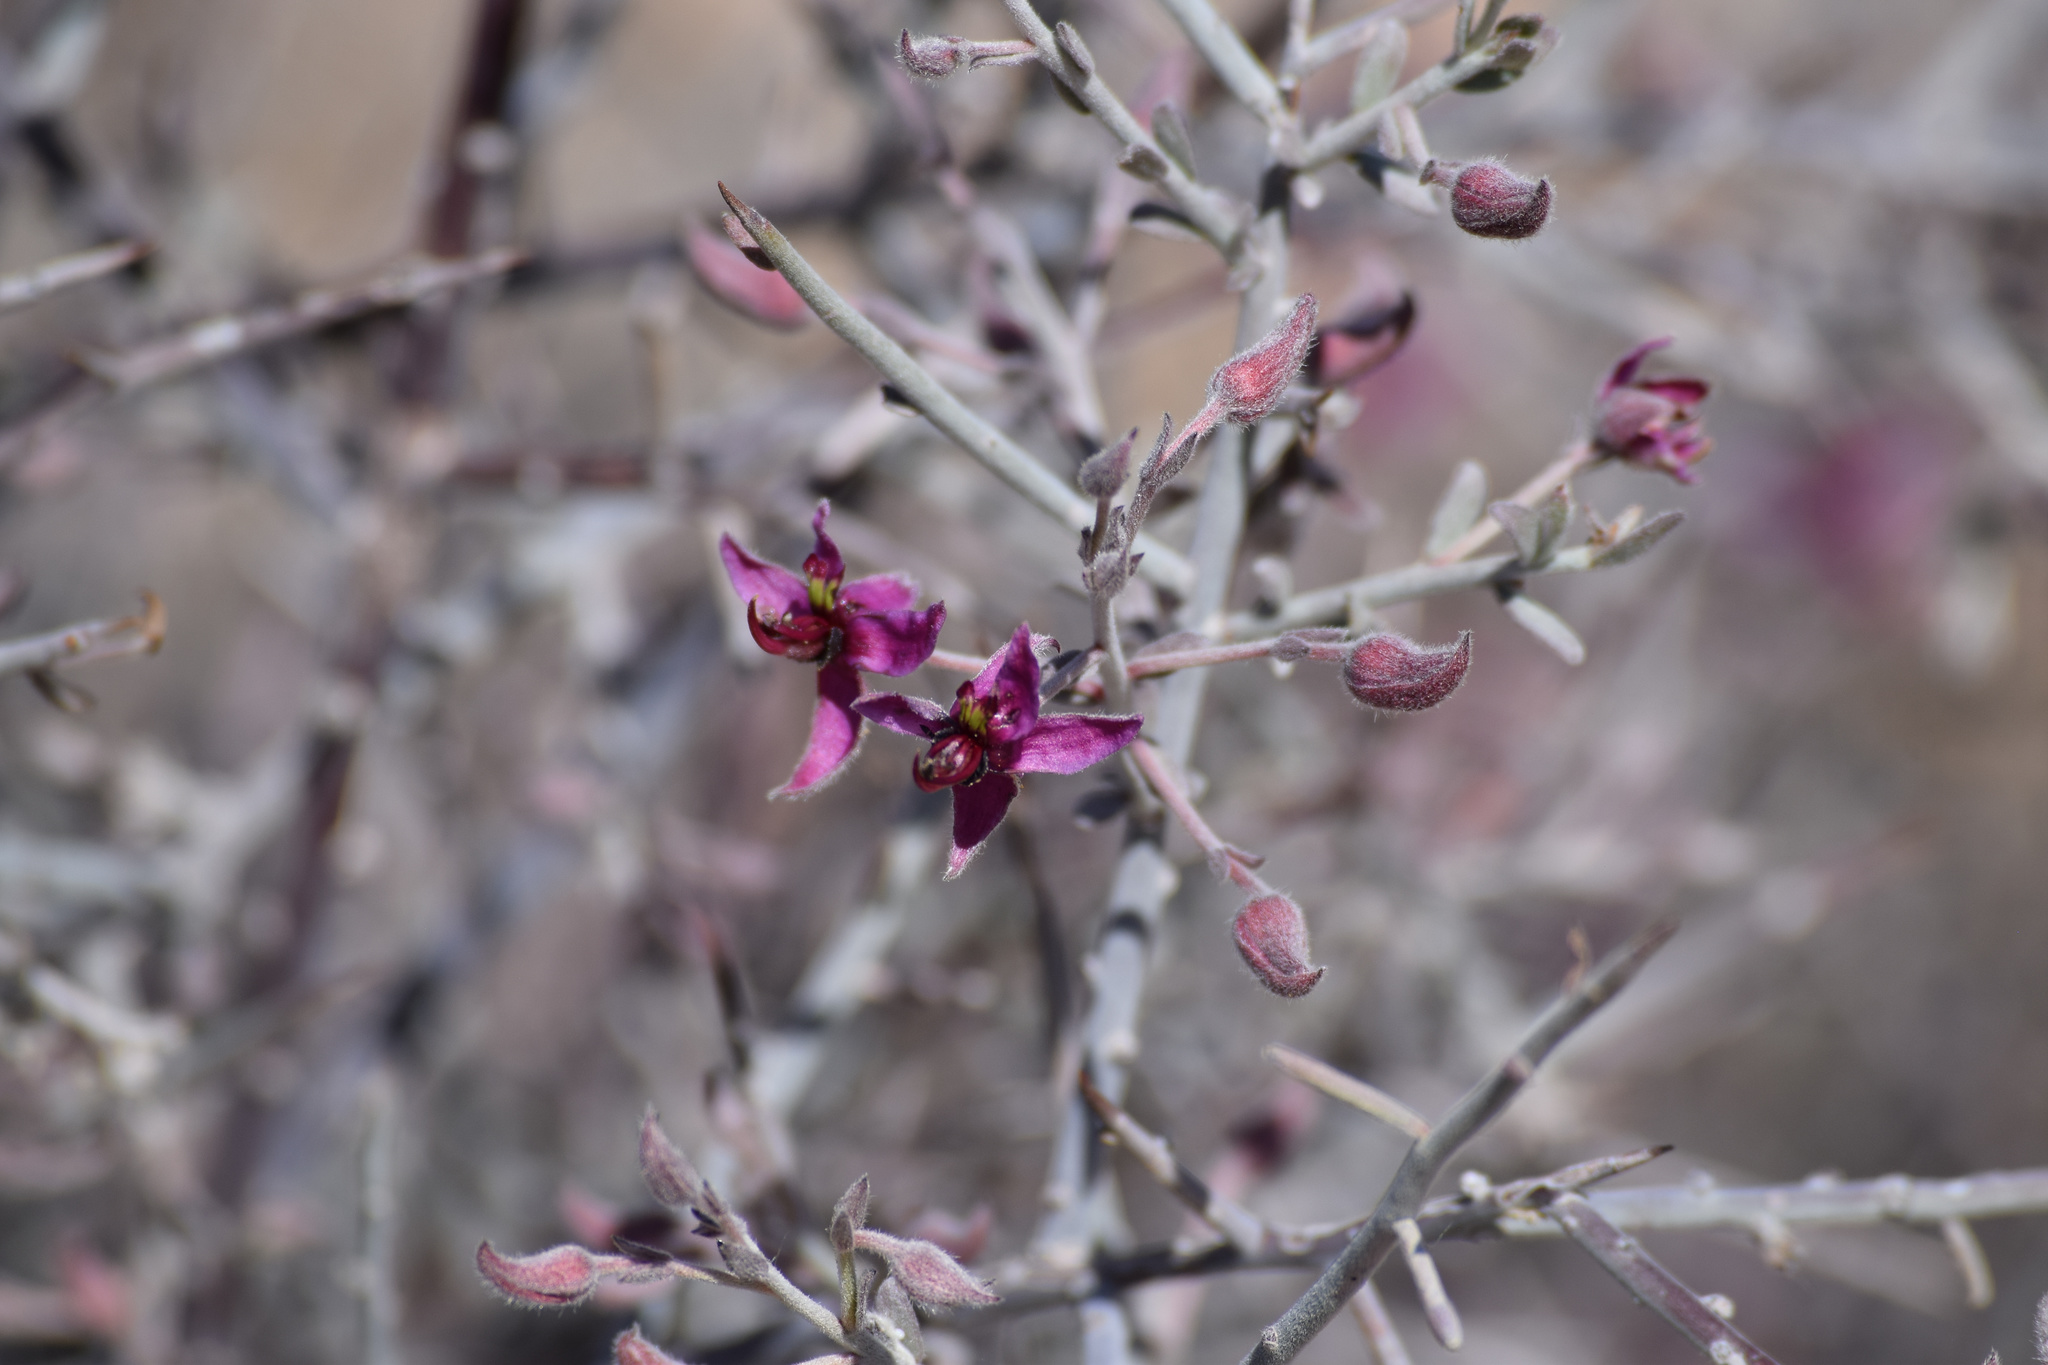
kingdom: Plantae
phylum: Tracheophyta
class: Magnoliopsida
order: Zygophyllales
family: Krameriaceae
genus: Krameria
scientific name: Krameria bicolor
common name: White ratany
